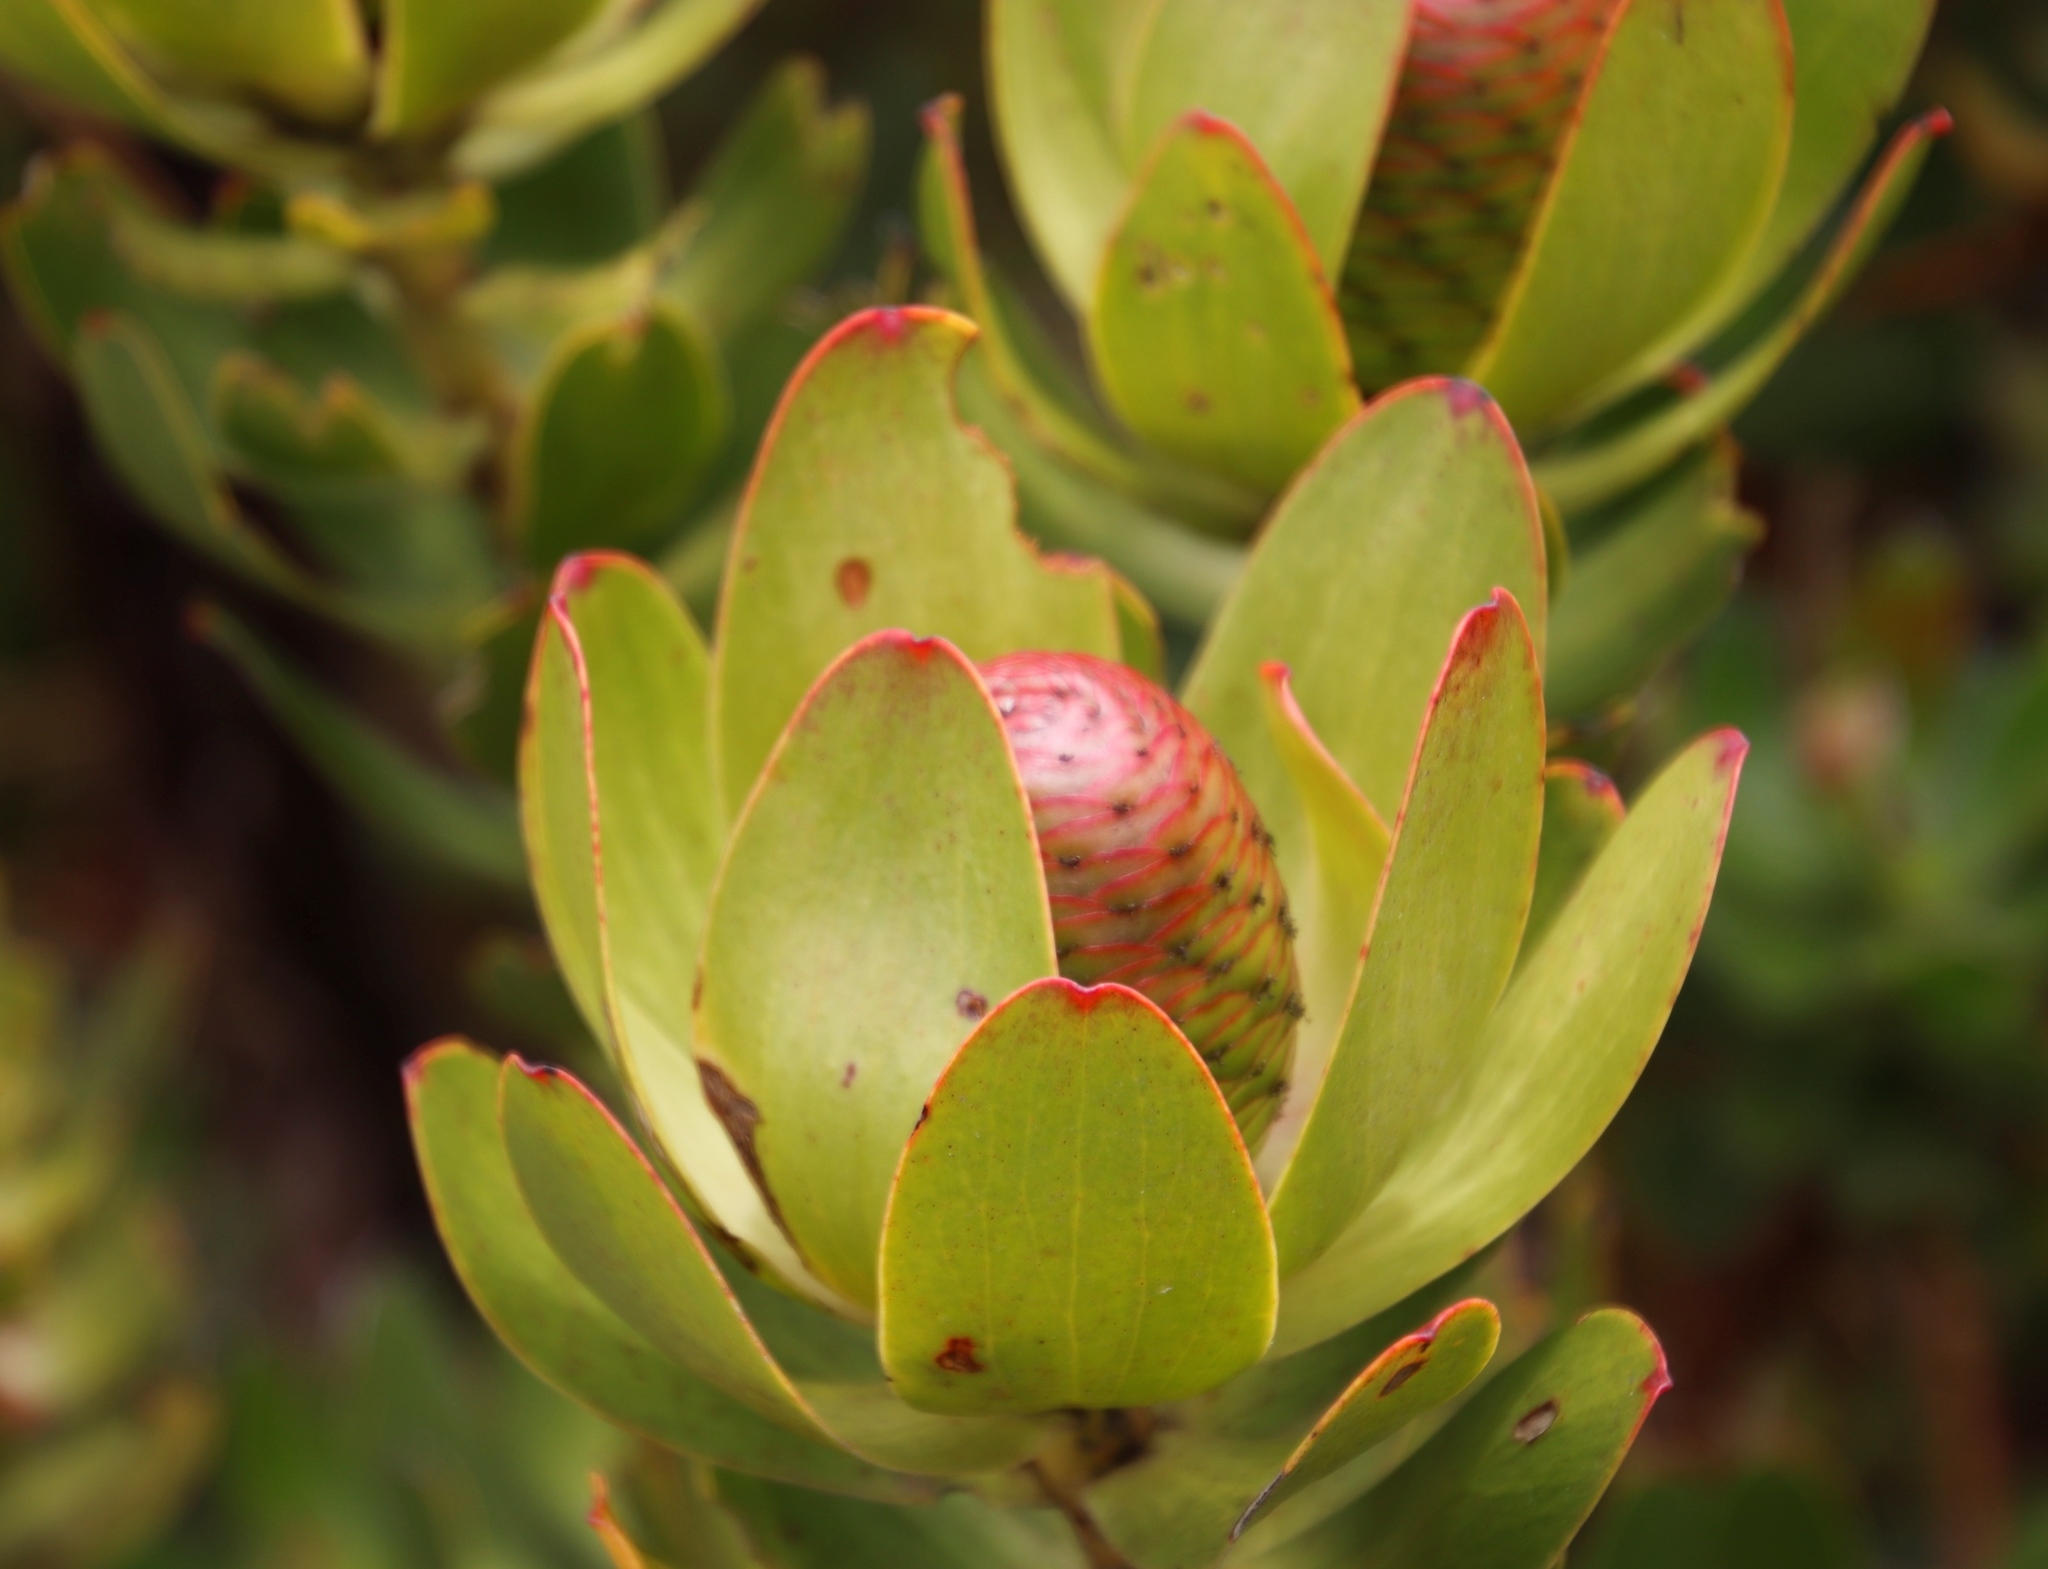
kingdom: Plantae
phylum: Tracheophyta
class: Magnoliopsida
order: Proteales
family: Proteaceae
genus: Leucadendron
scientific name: Leucadendron strobilinum
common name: Mountain rose
